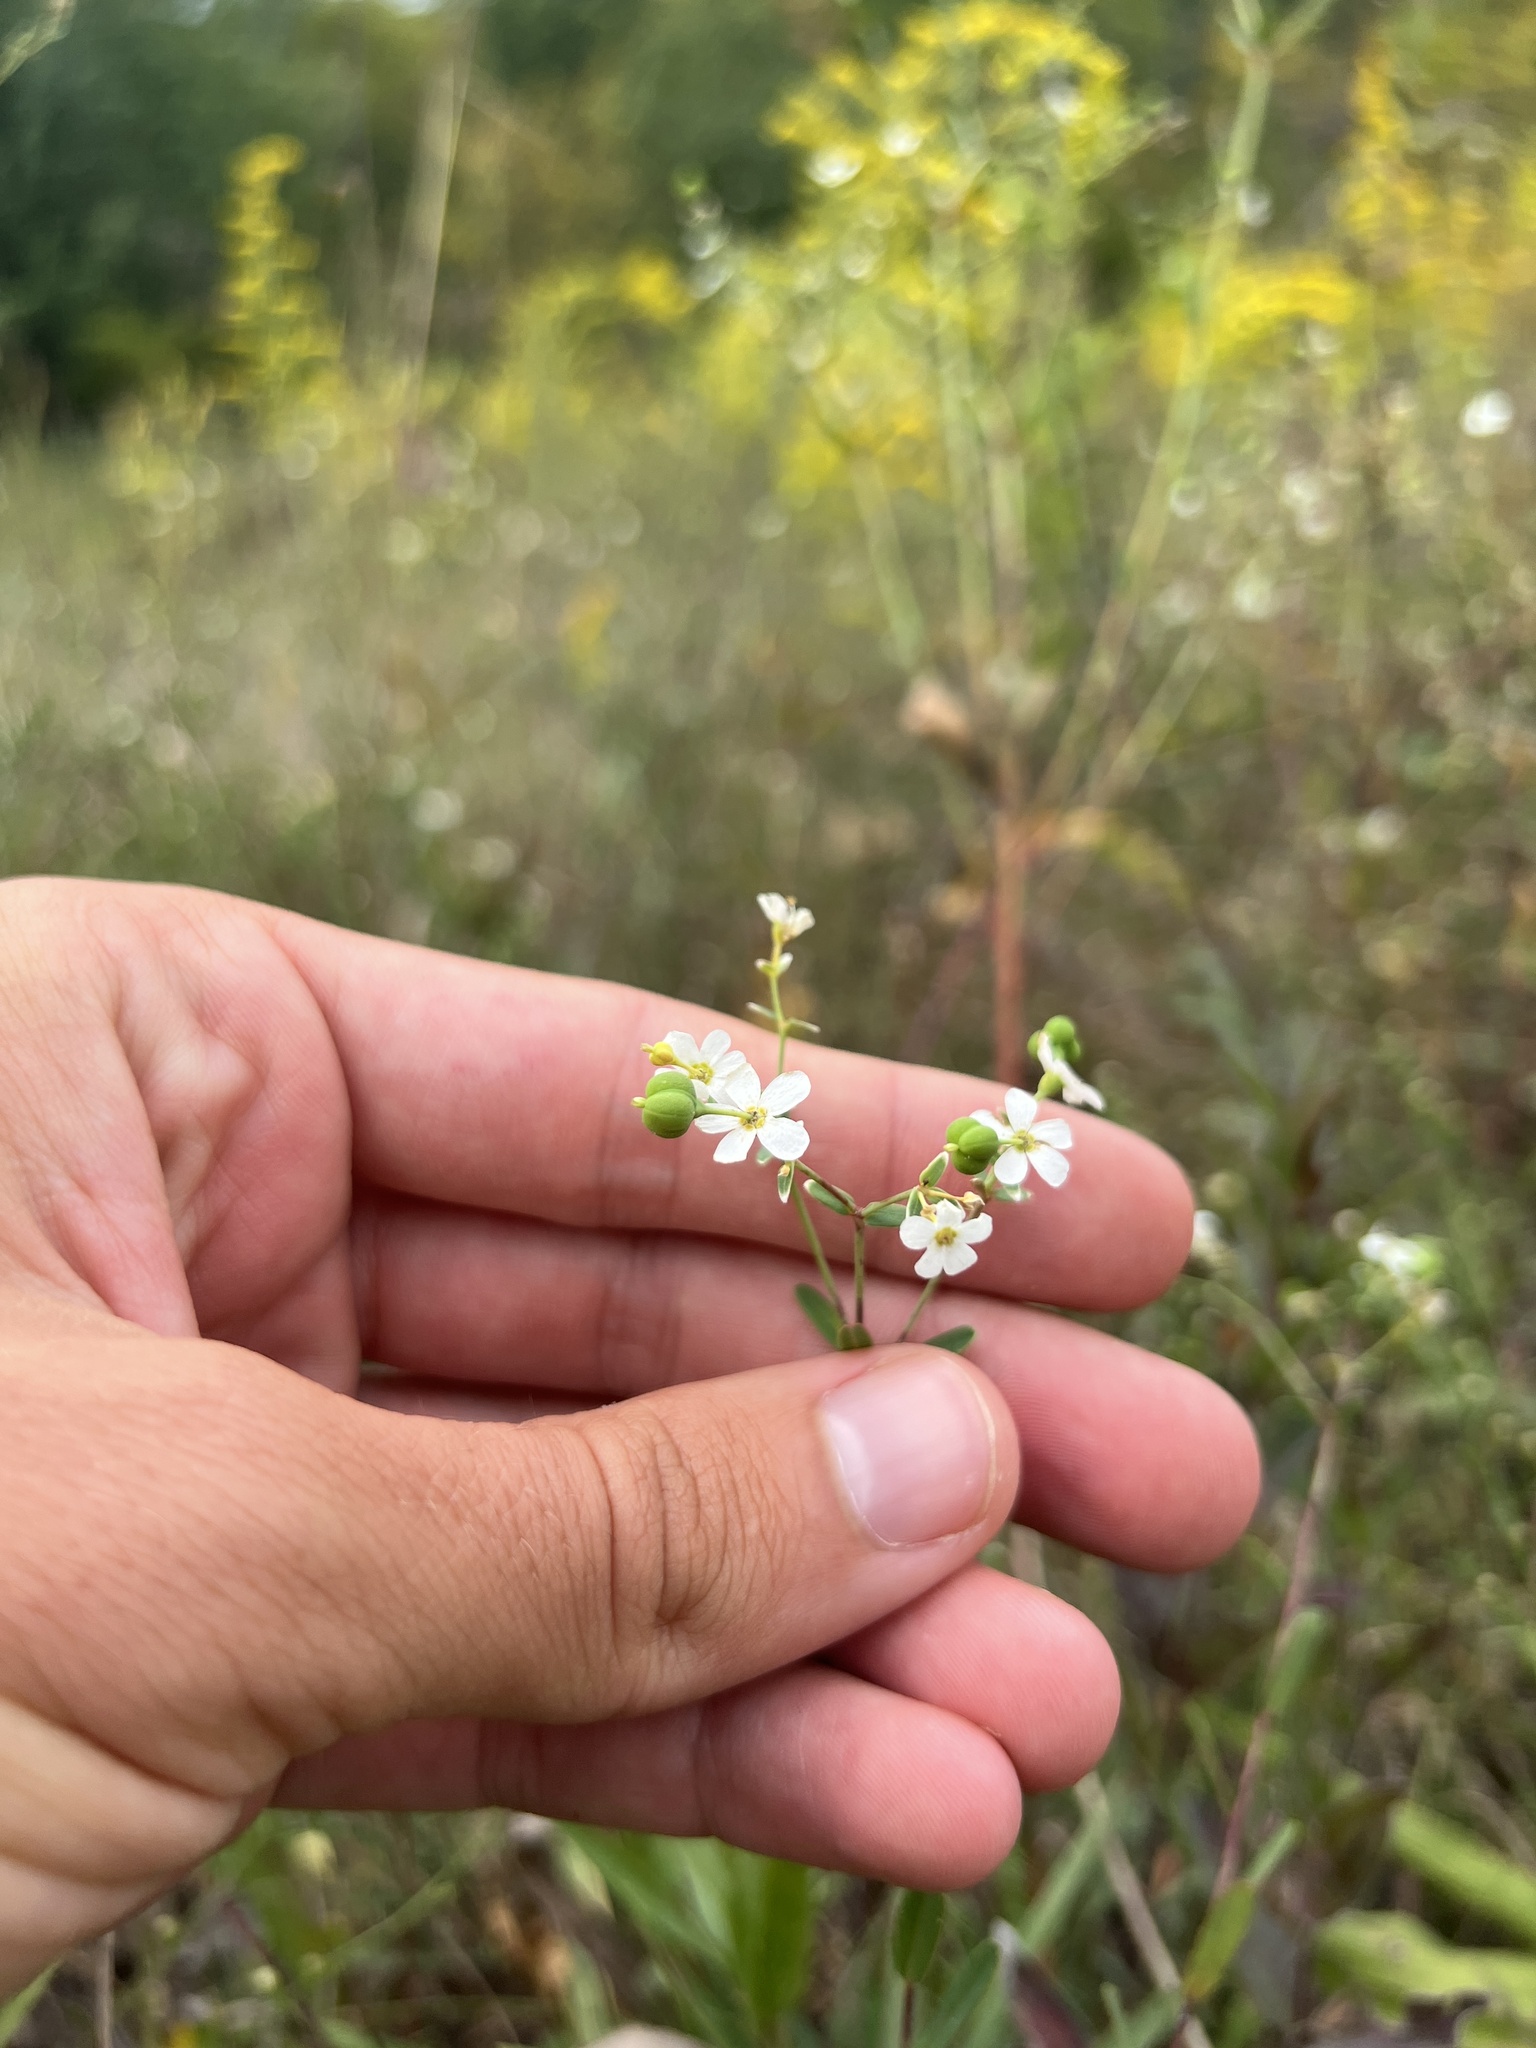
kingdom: Plantae
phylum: Tracheophyta
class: Magnoliopsida
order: Malpighiales
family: Euphorbiaceae
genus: Euphorbia
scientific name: Euphorbia corollata
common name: Flowering spurge
